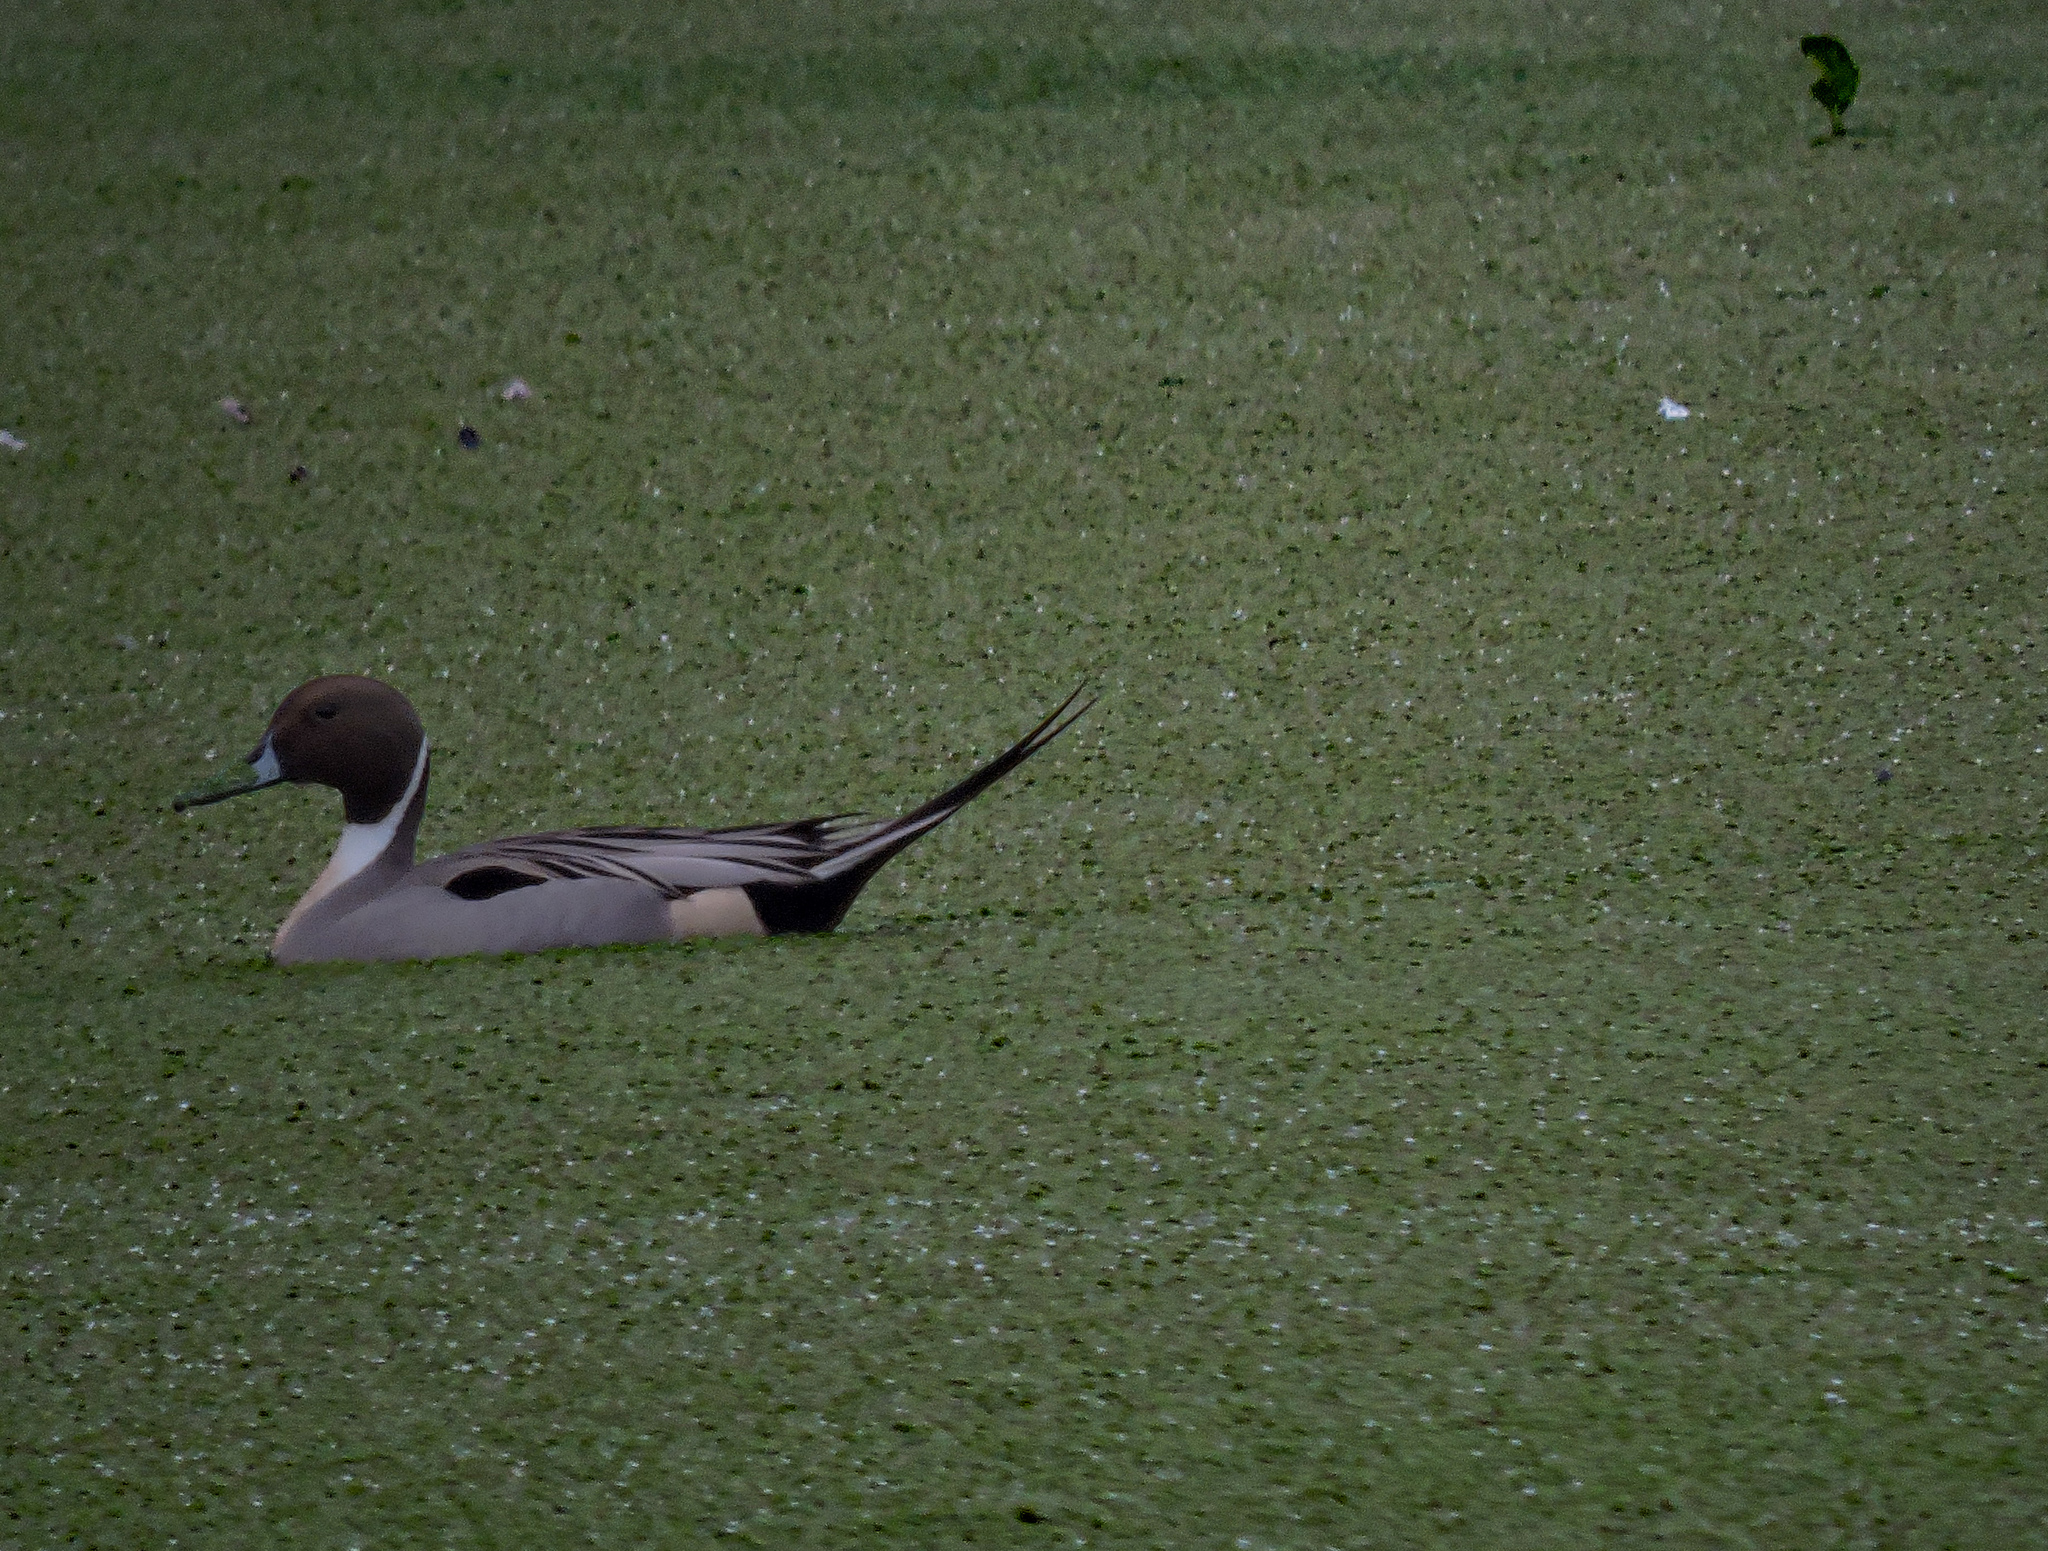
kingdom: Animalia
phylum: Chordata
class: Aves
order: Anseriformes
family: Anatidae
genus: Anas
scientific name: Anas acuta
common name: Northern pintail
